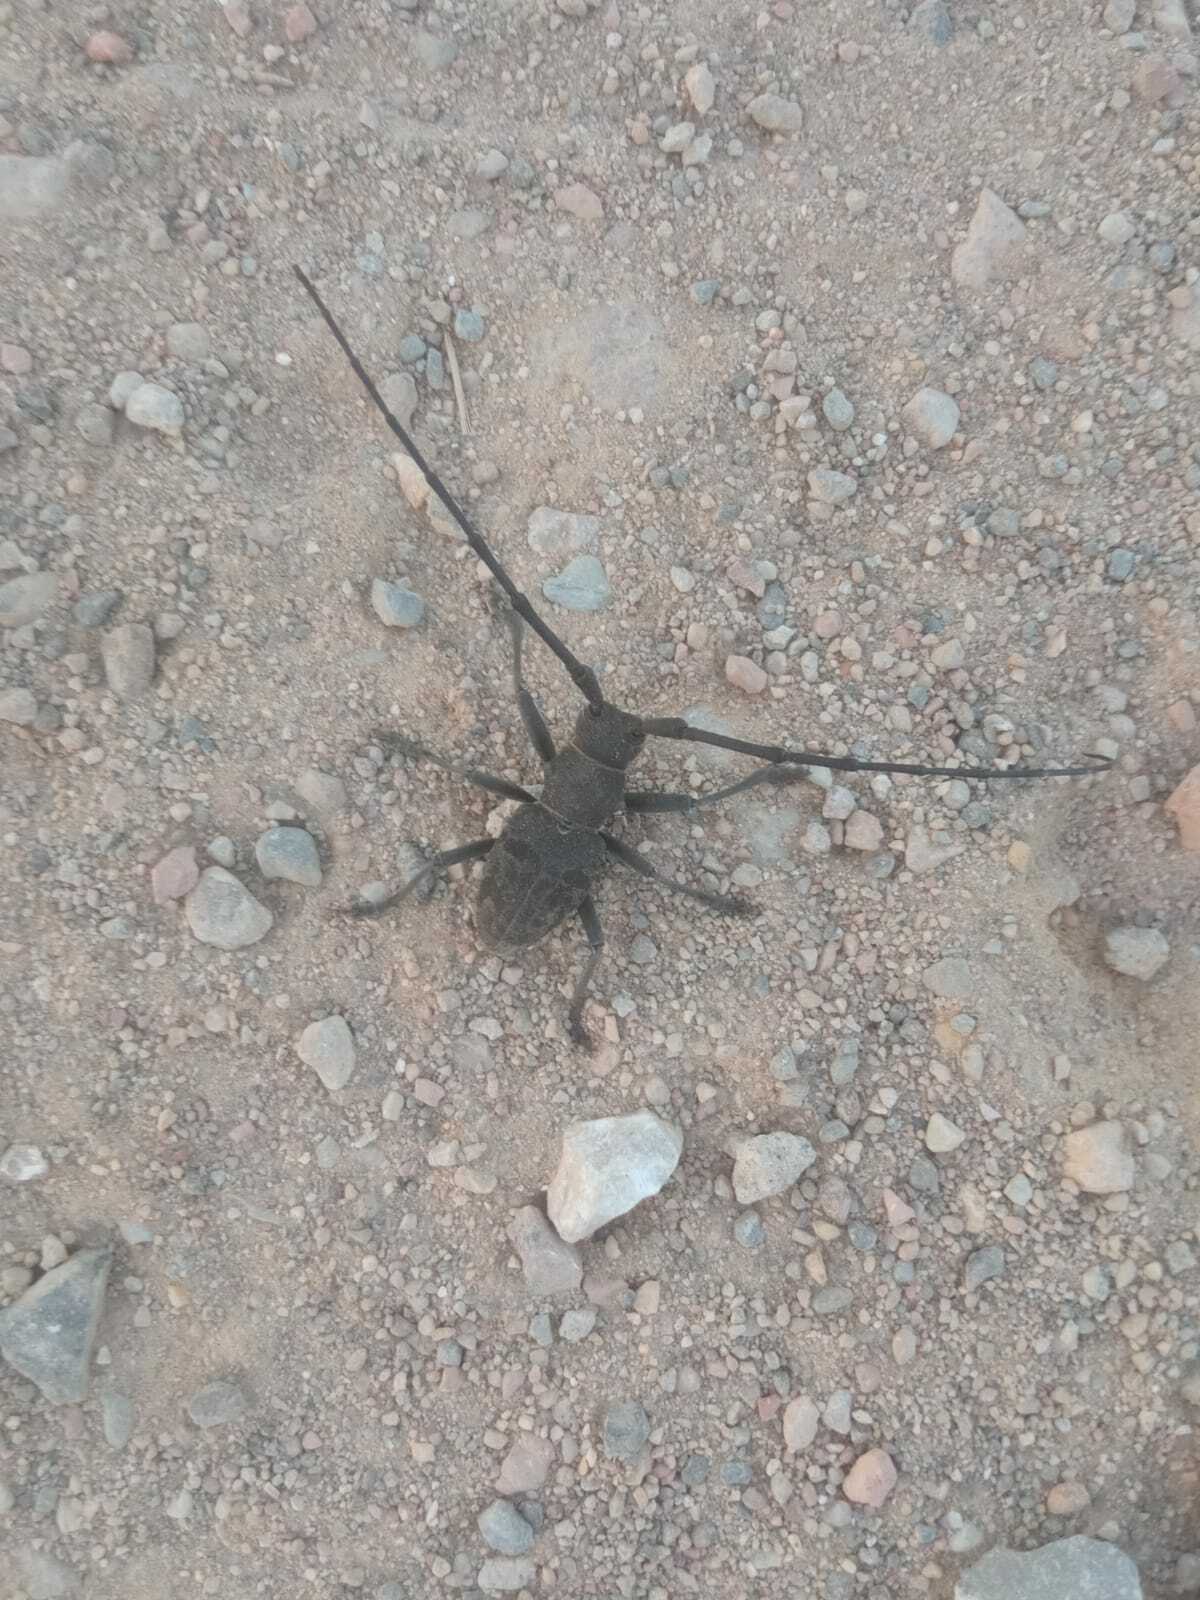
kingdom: Animalia
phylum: Arthropoda
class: Insecta
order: Coleoptera
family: Cerambycidae
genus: Morimus
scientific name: Morimus asper
